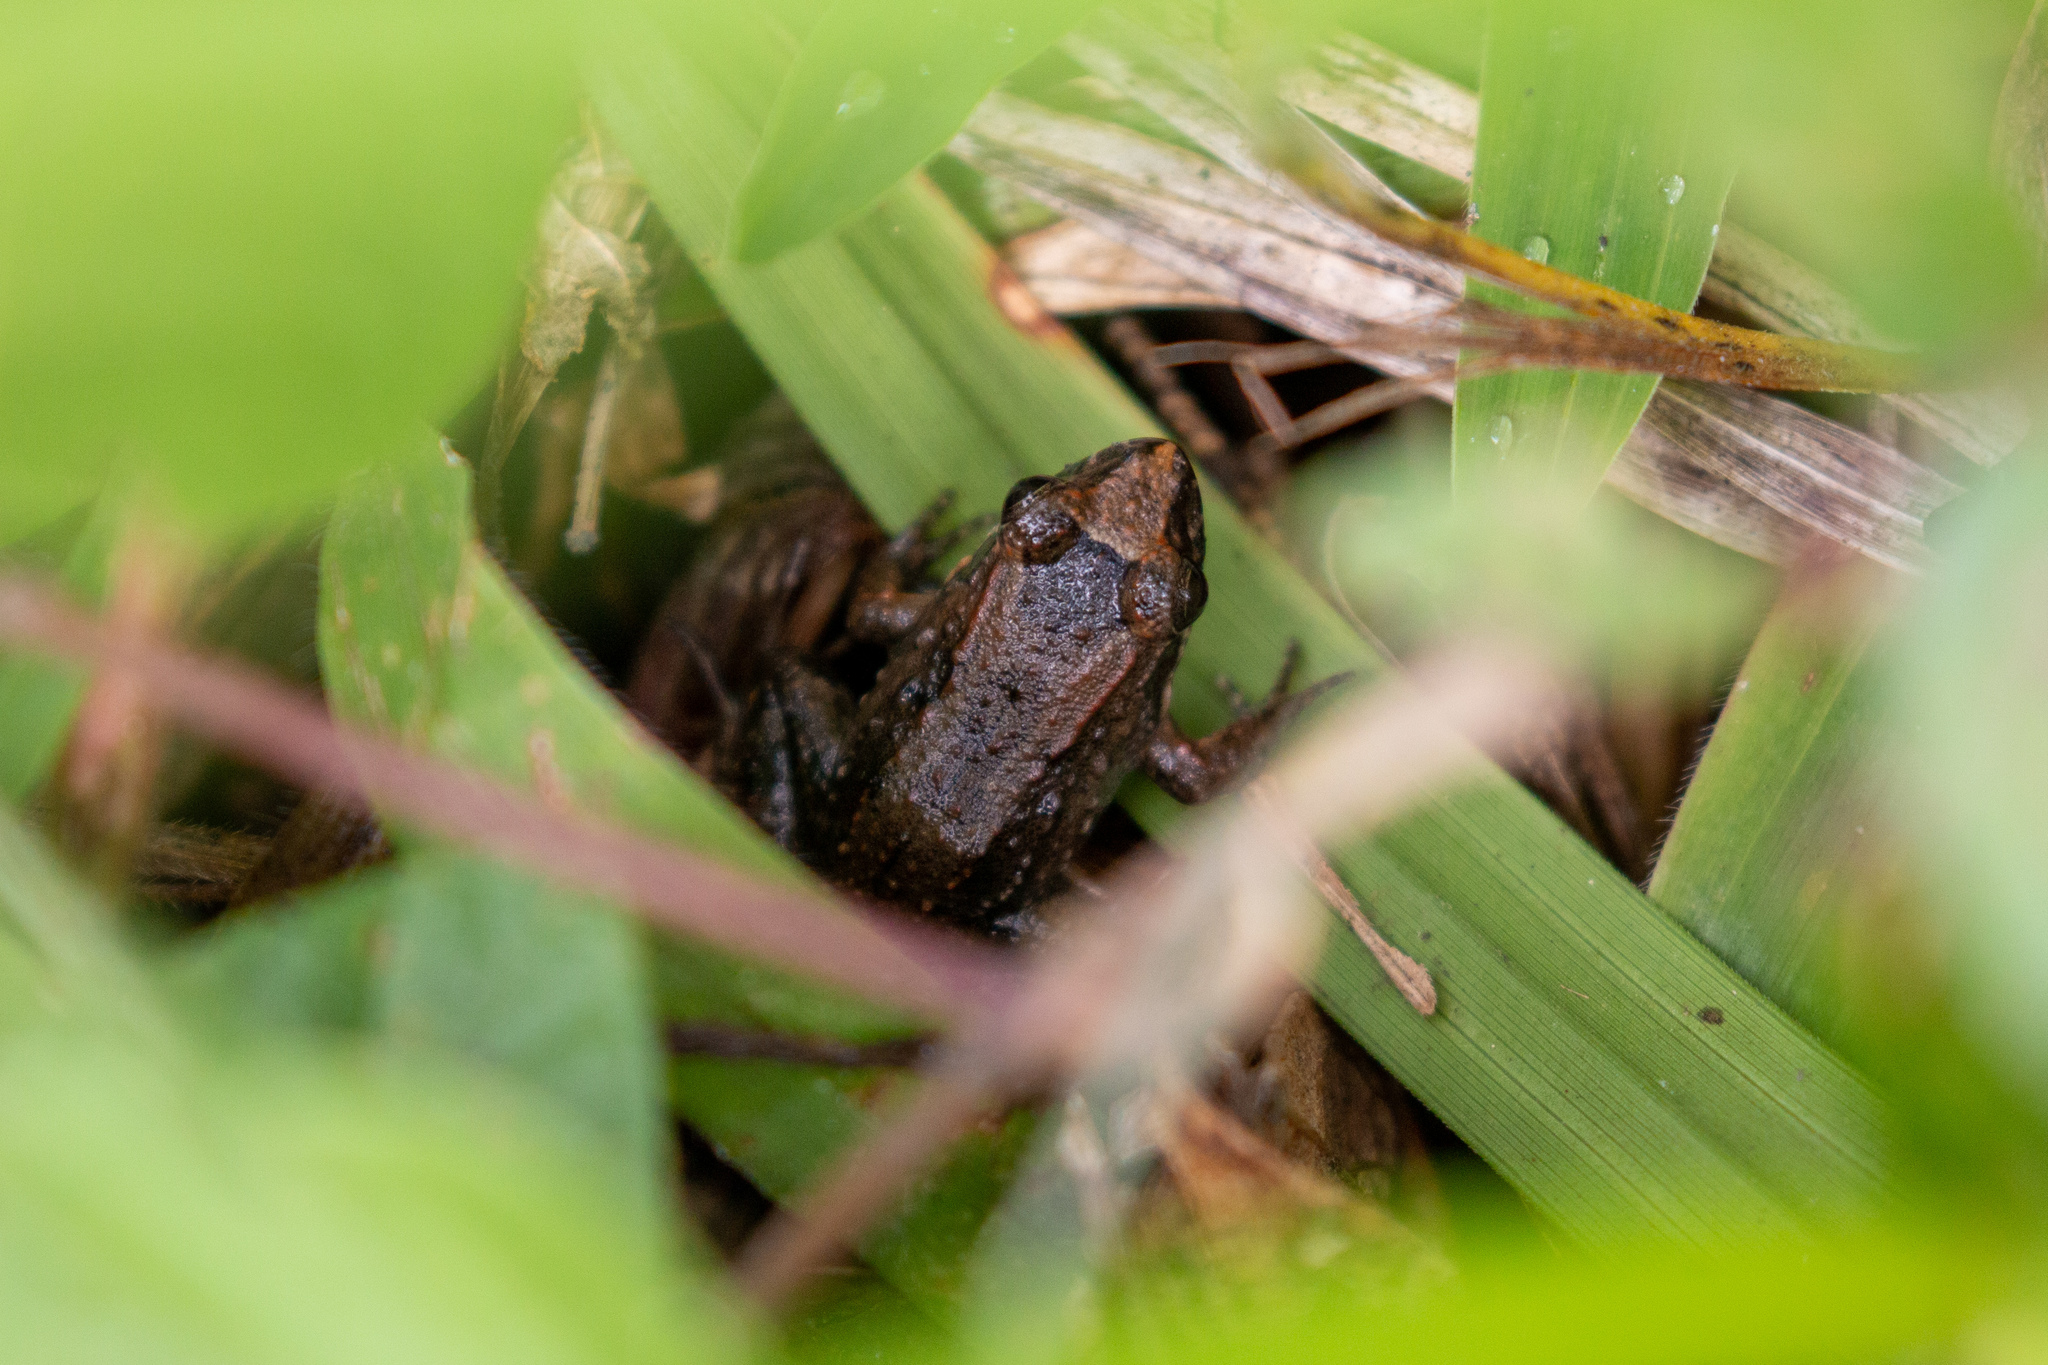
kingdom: Animalia
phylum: Chordata
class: Amphibia
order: Anura
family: Leptodactylidae
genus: Leptodactylus
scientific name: Leptodactylus natalensis
